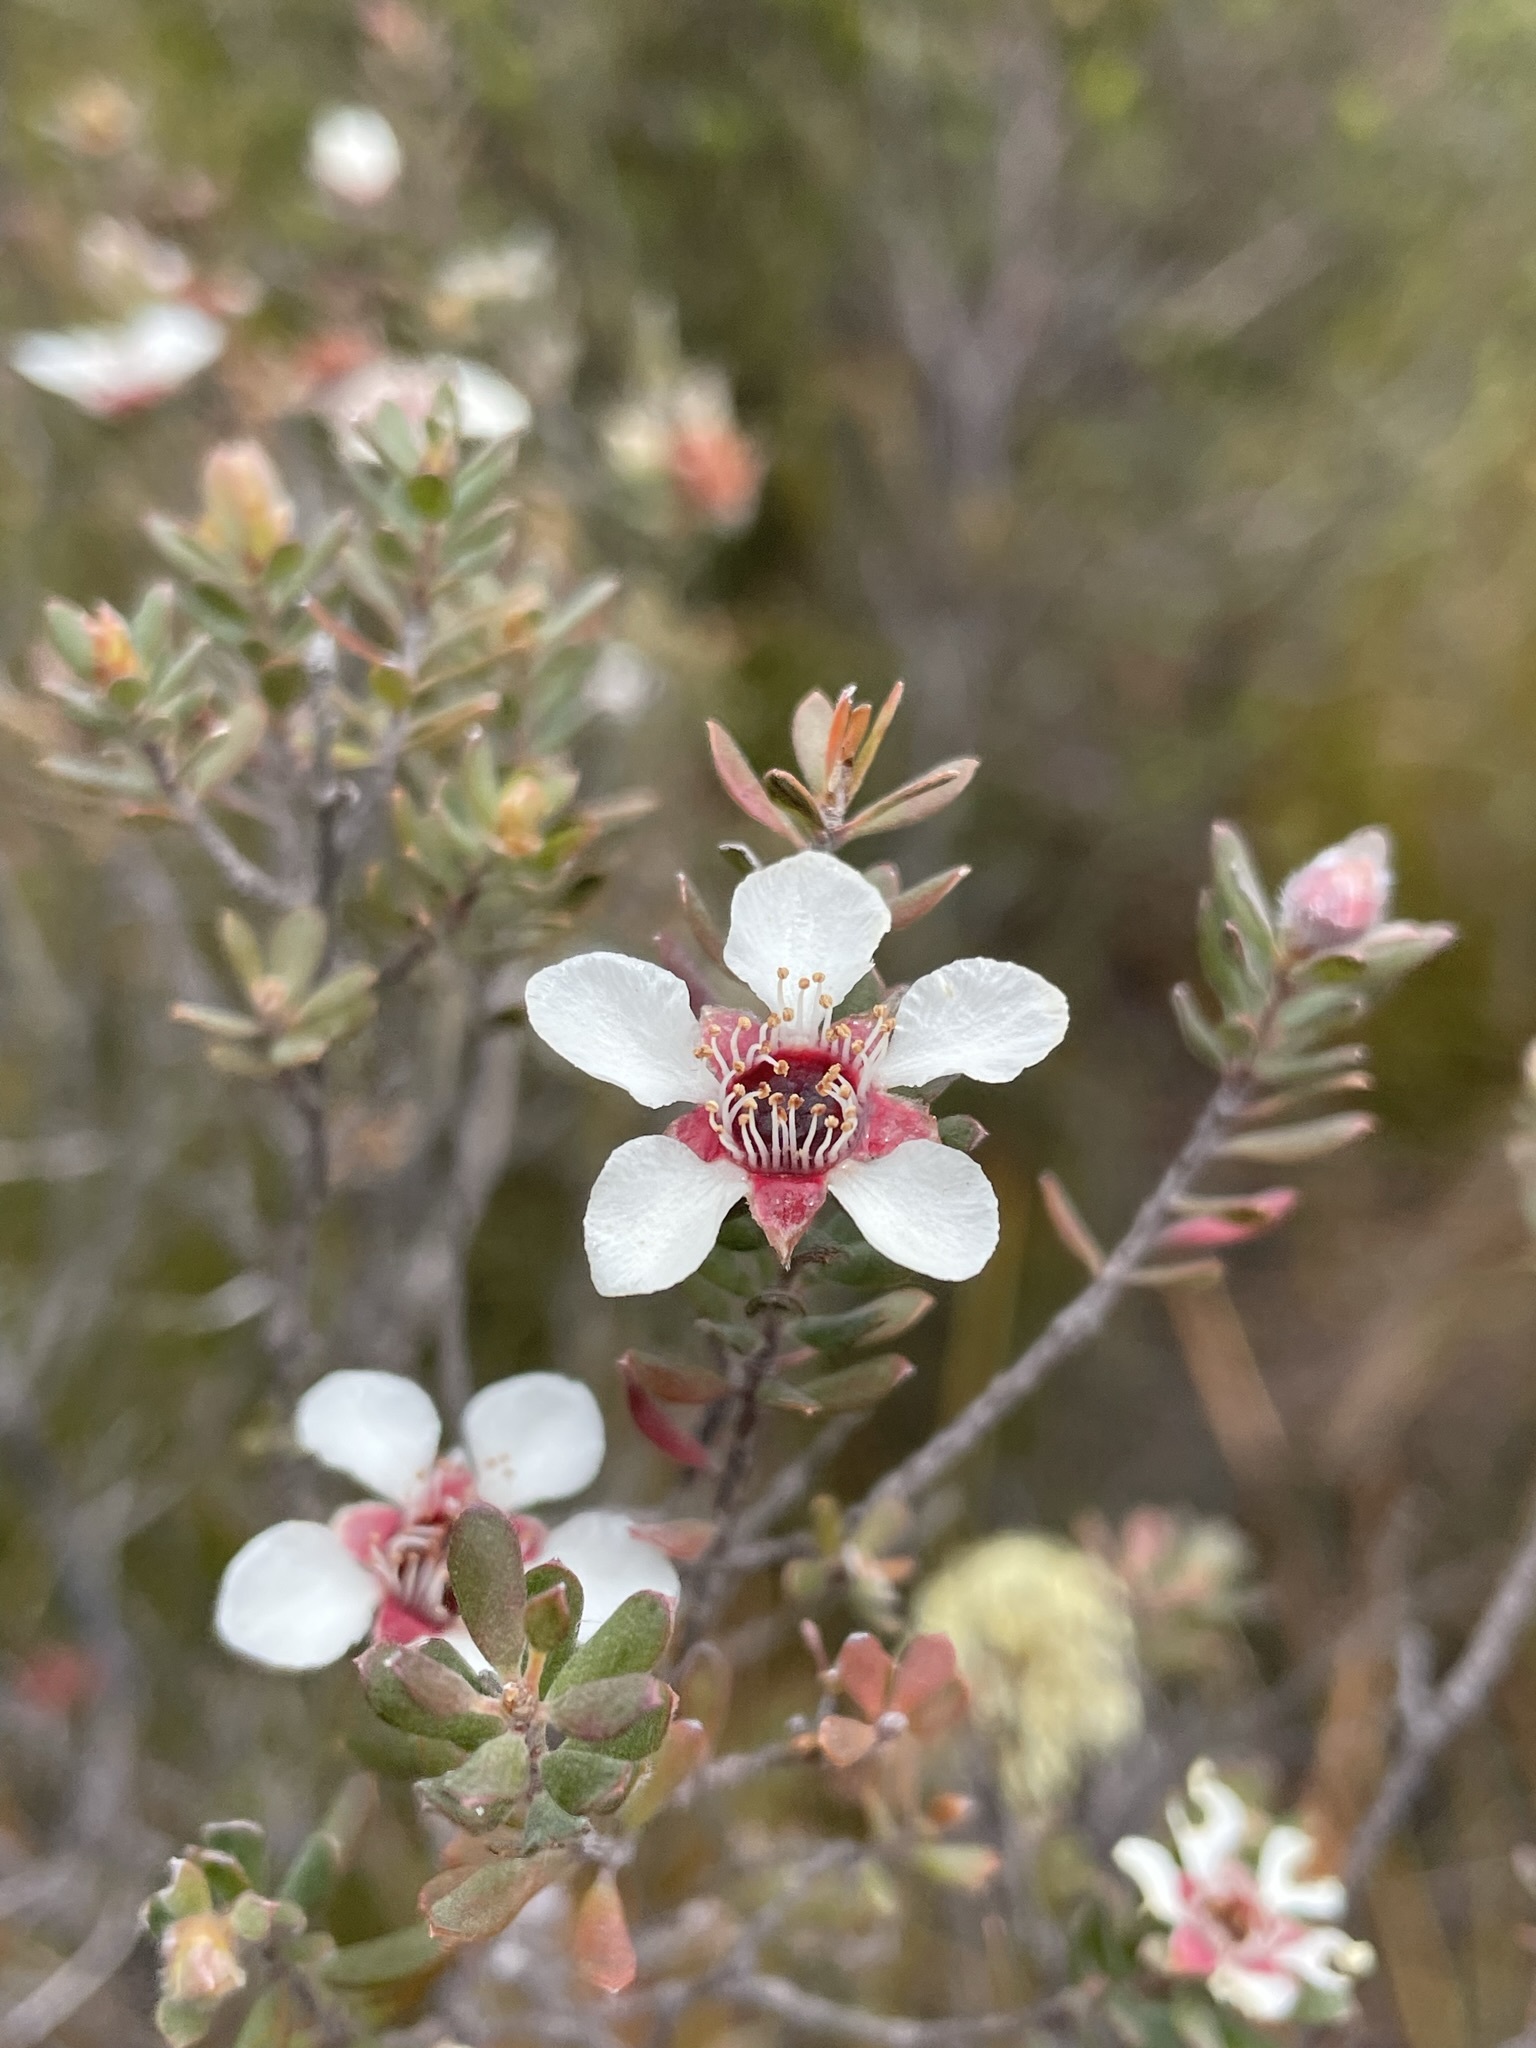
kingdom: Plantae
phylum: Tracheophyta
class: Magnoliopsida
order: Myrtales
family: Myrtaceae
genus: Leptospermum
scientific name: Leptospermum lanigerum
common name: Woolly tea-tree
